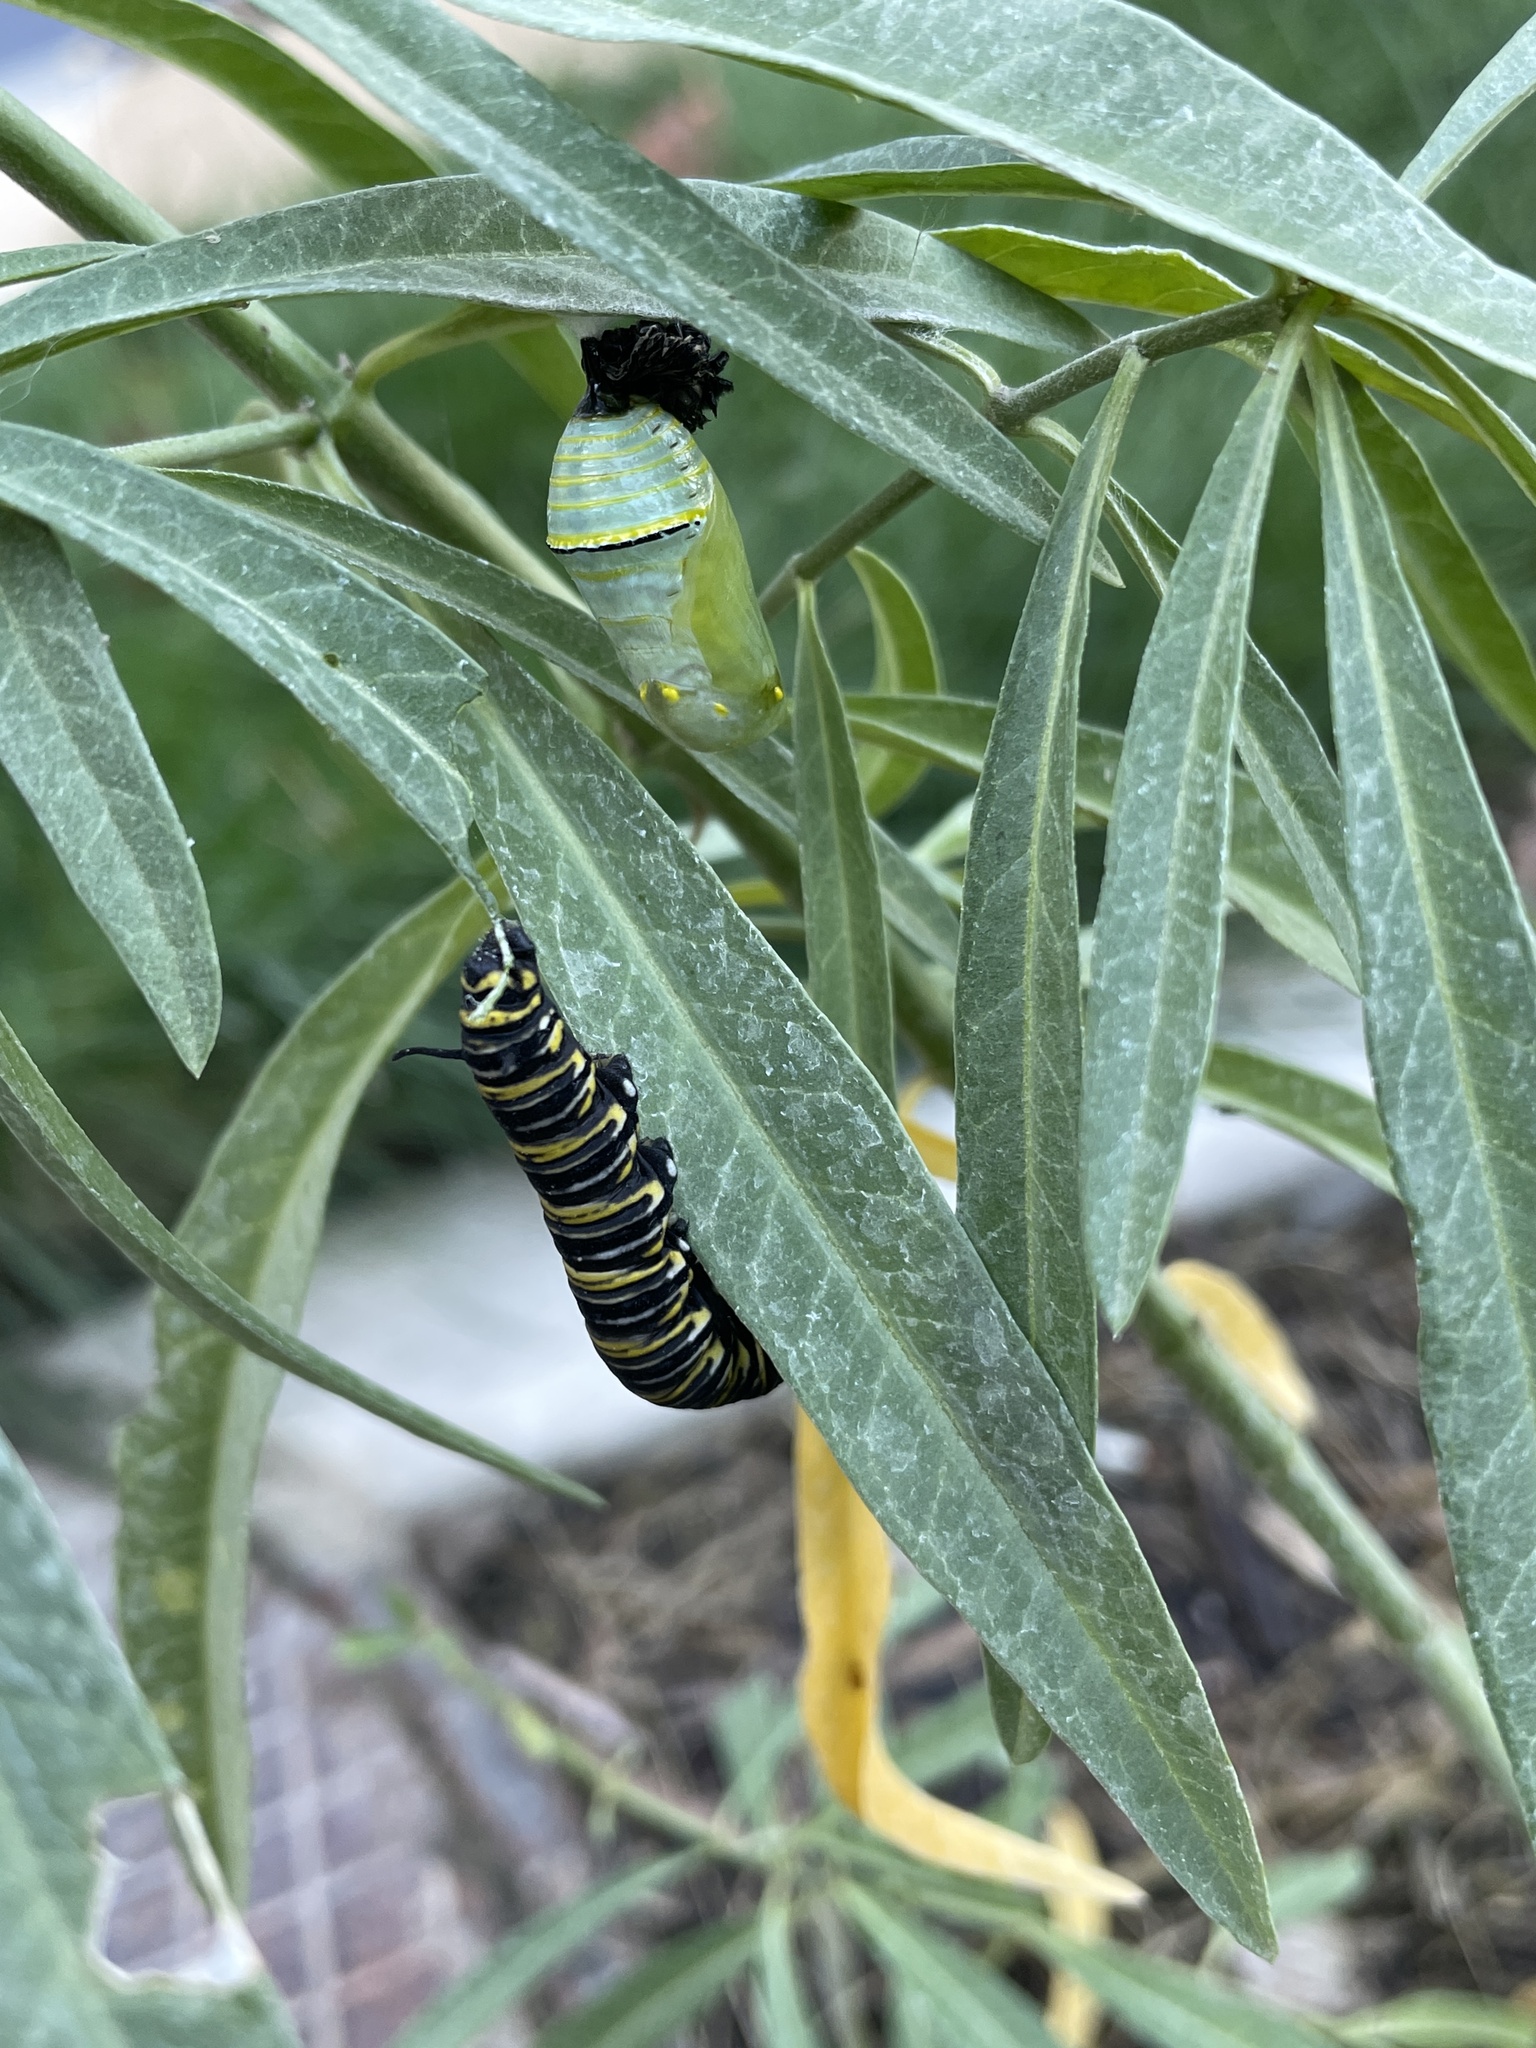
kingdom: Animalia
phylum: Arthropoda
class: Insecta
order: Lepidoptera
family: Nymphalidae
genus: Danaus
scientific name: Danaus plexippus
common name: Monarch
